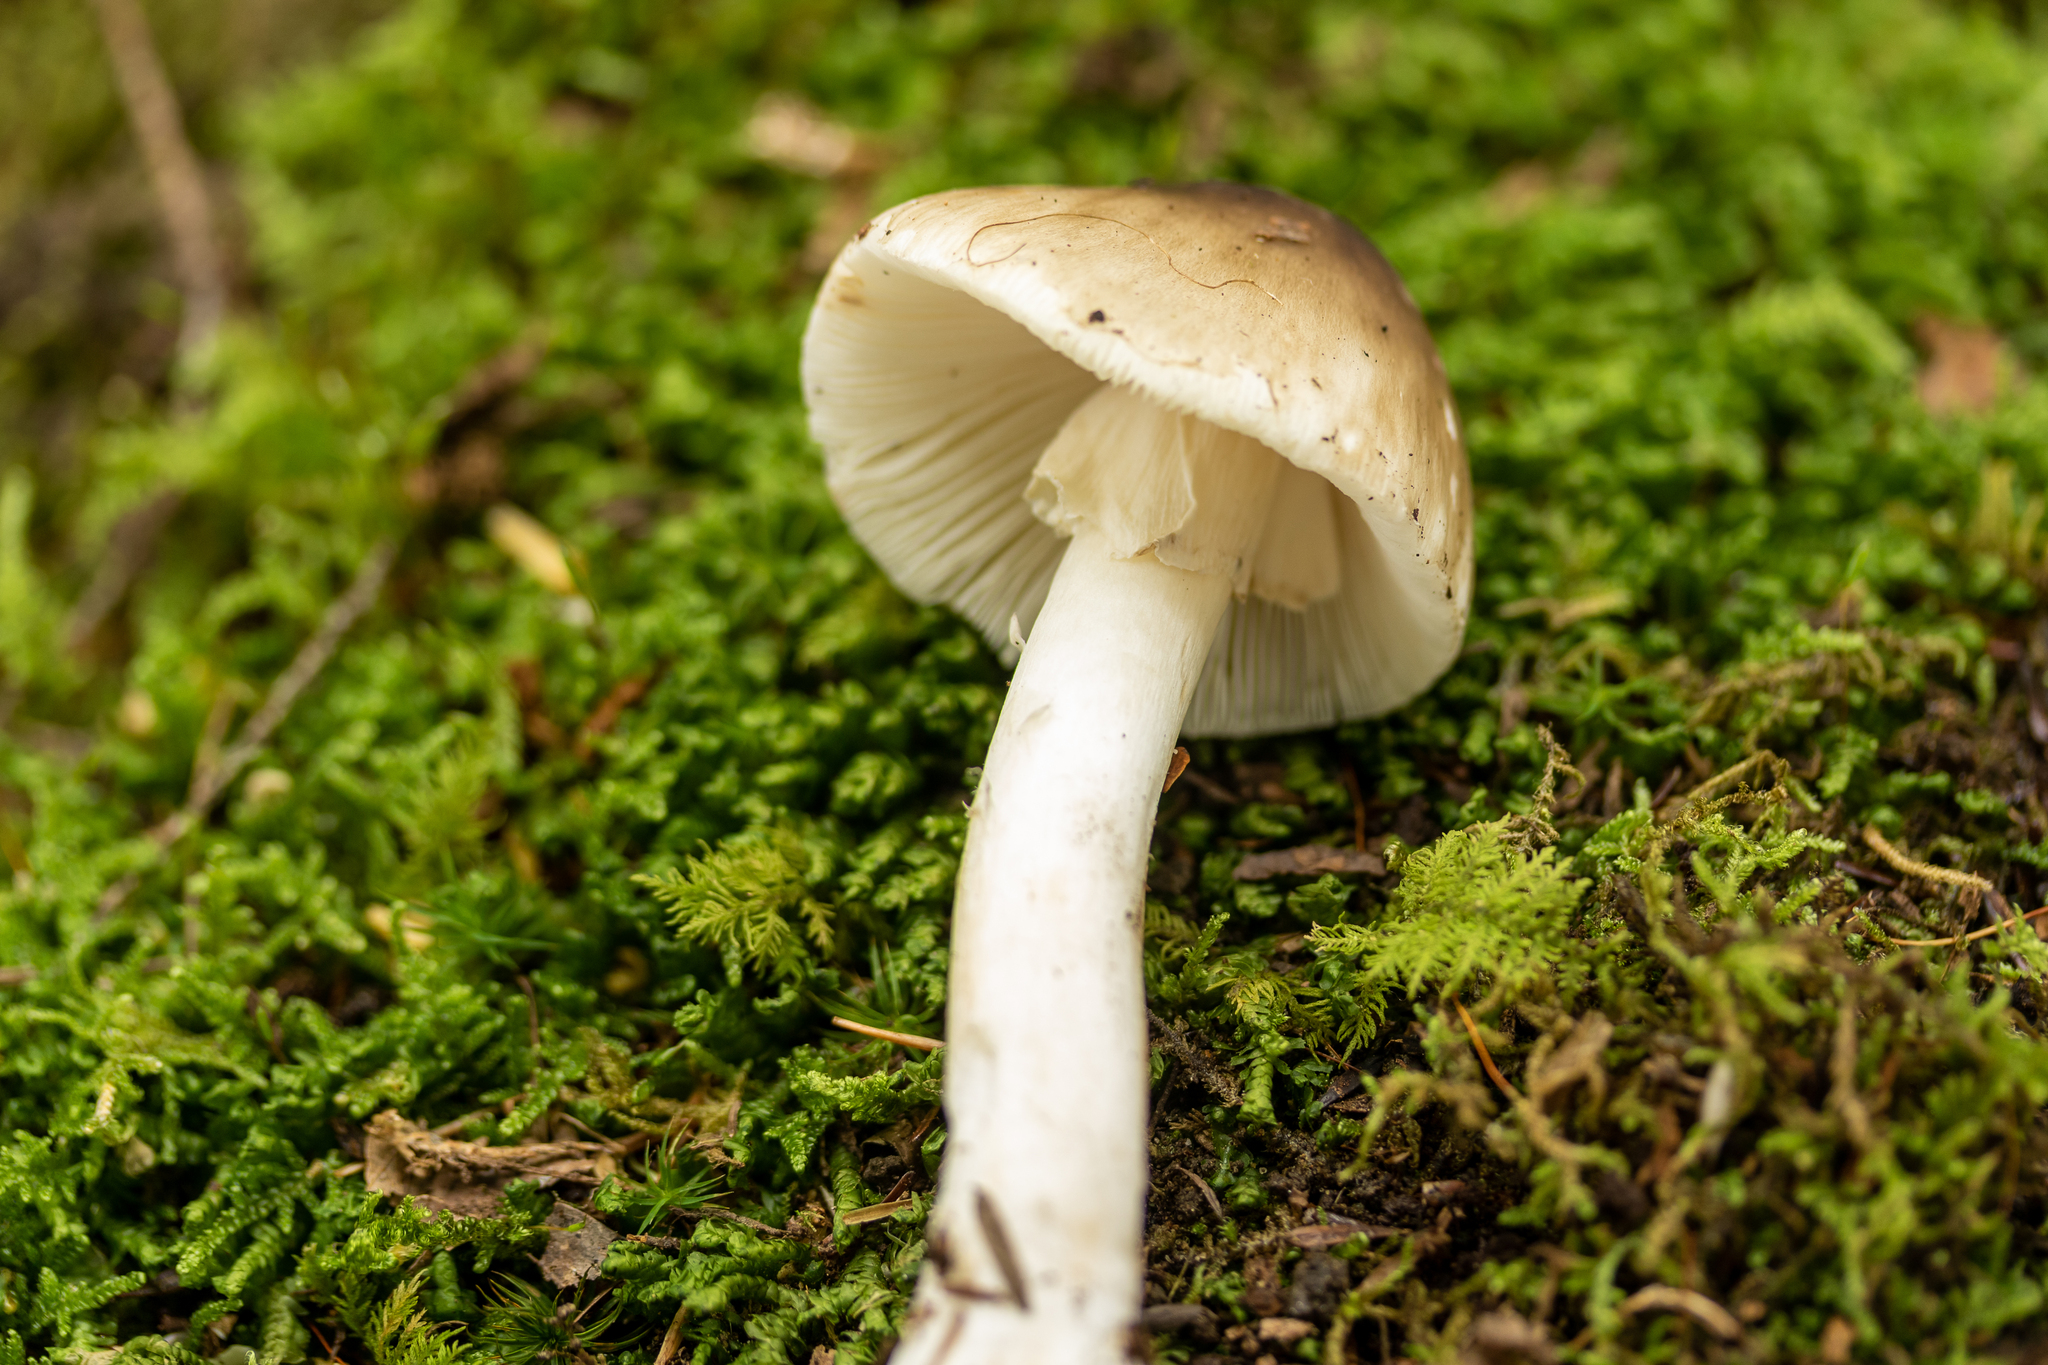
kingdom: Fungi
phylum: Basidiomycota
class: Agaricomycetes
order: Agaricales
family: Amanitaceae
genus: Amanita
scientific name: Amanita brunnescens
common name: Brown american star-footed amanita
